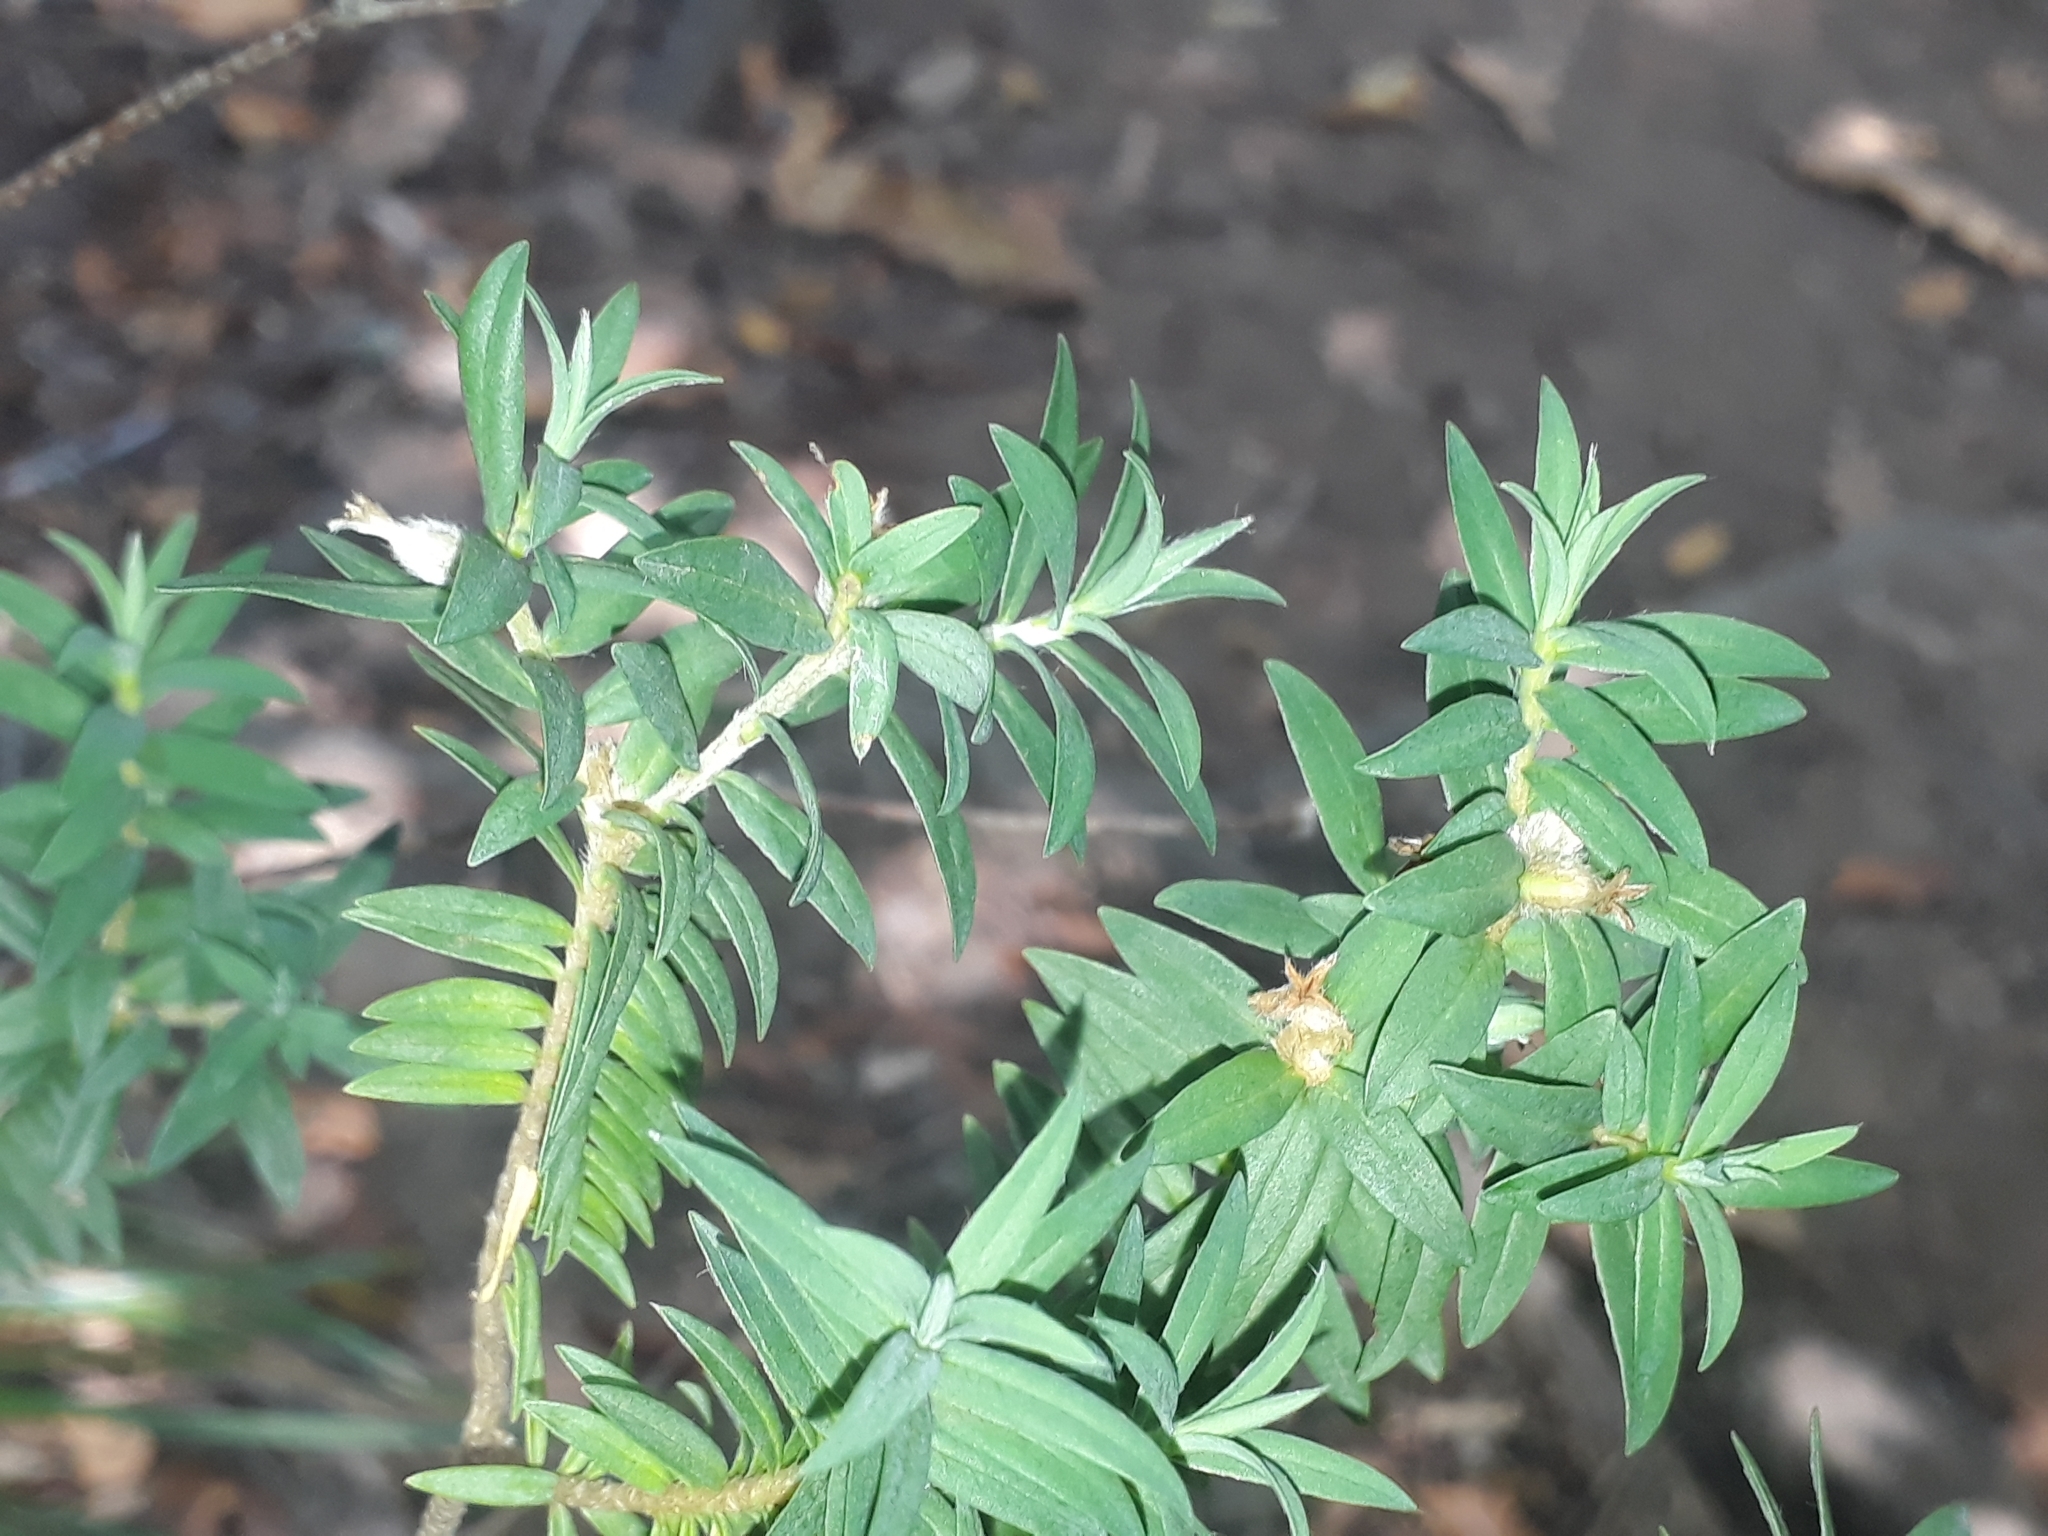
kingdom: Plantae
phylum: Tracheophyta
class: Magnoliopsida
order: Malvales
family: Thymelaeaceae
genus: Pimelea
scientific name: Pimelea tomentosa
